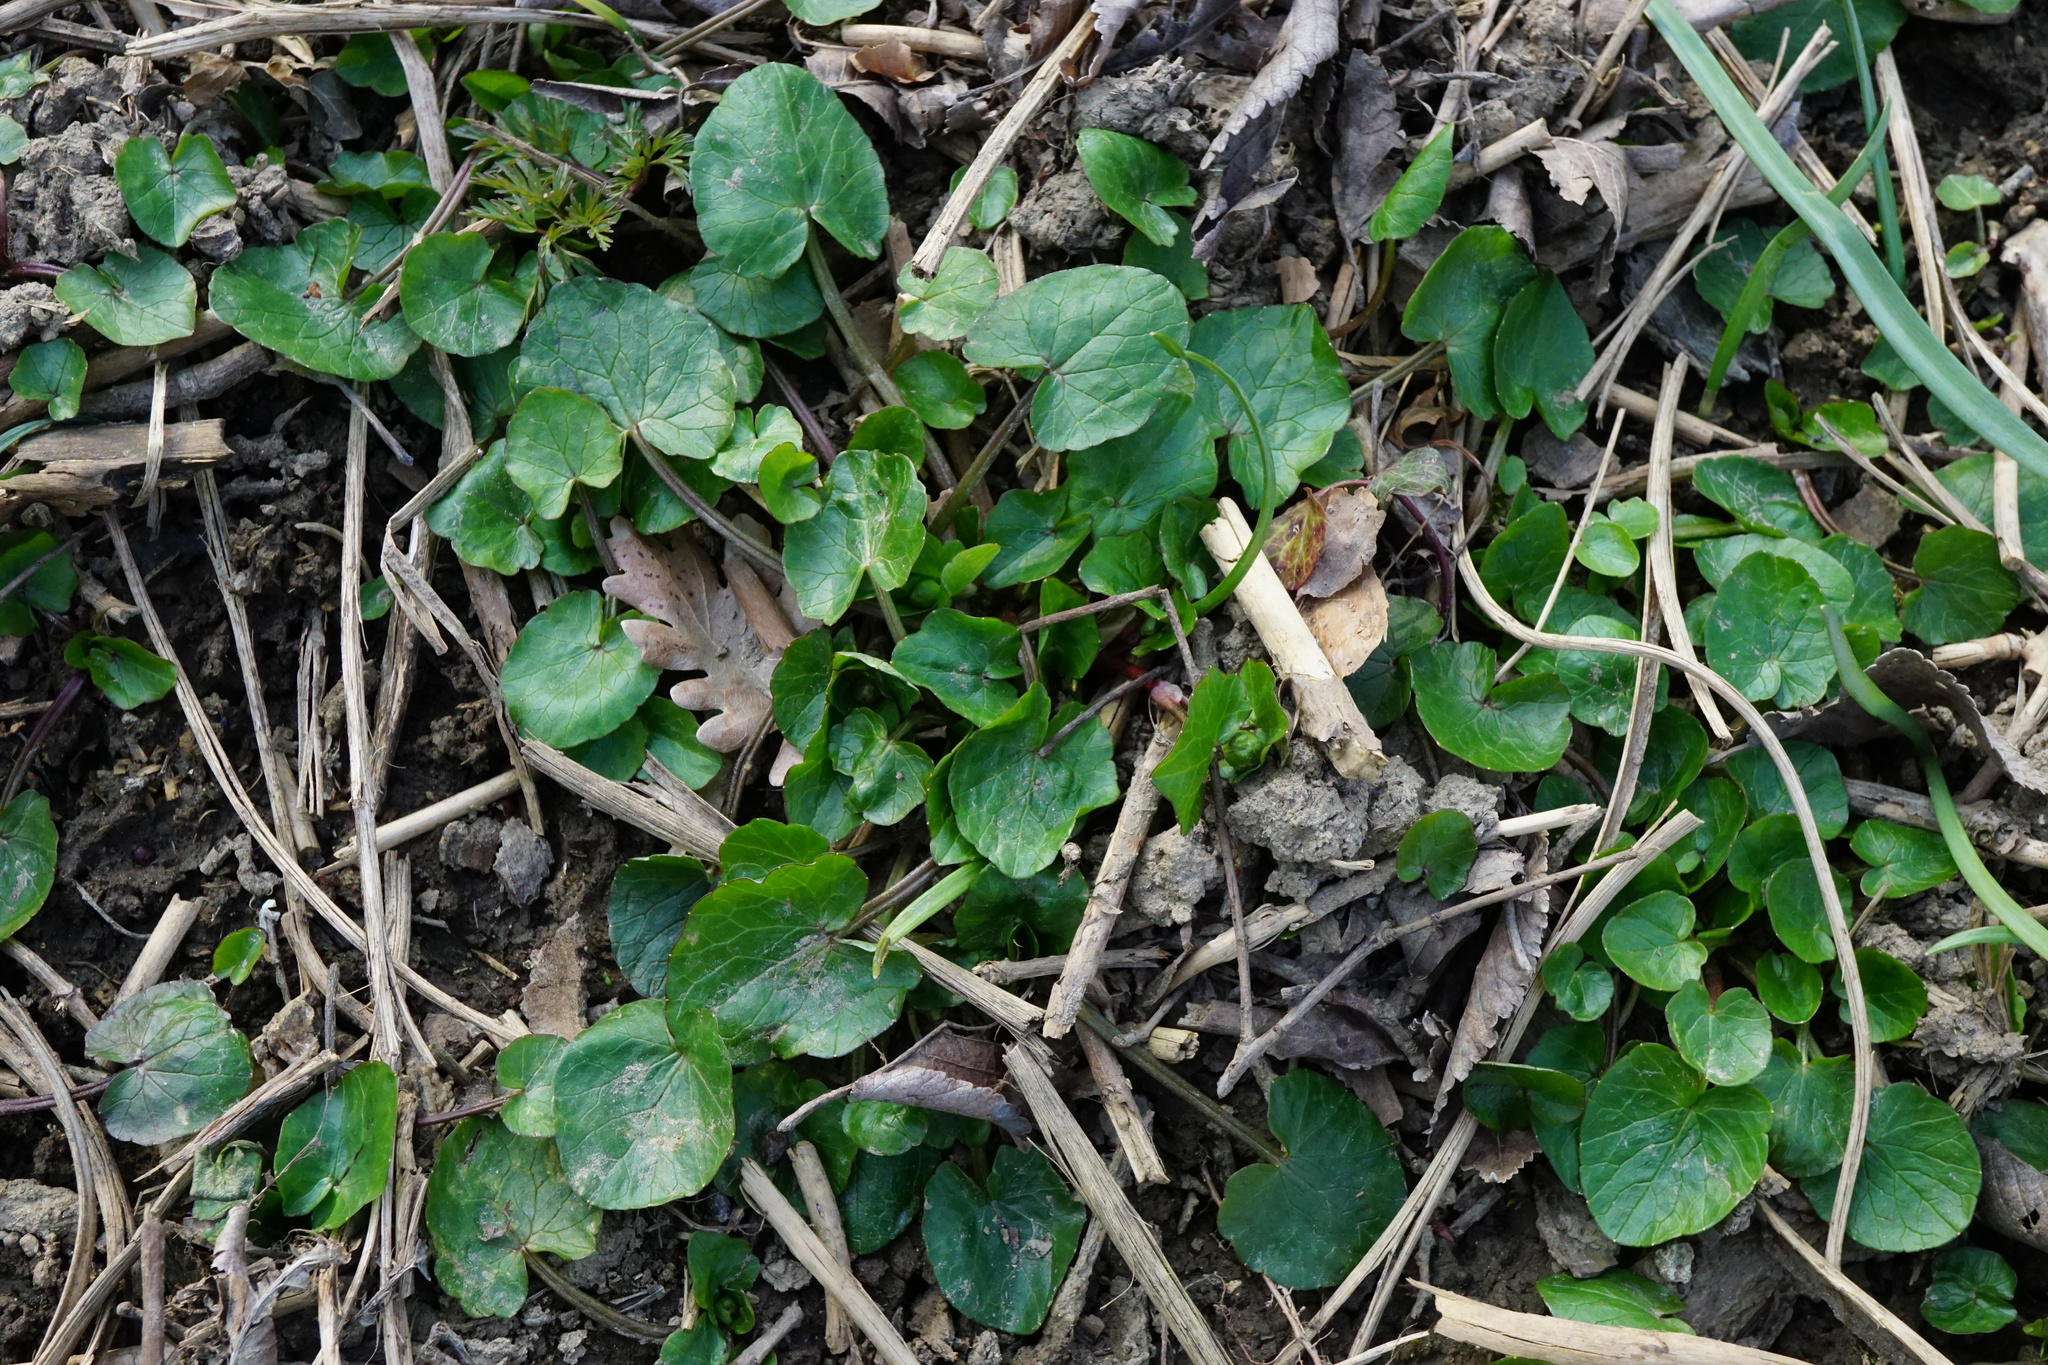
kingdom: Plantae
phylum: Tracheophyta
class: Magnoliopsida
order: Ranunculales
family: Ranunculaceae
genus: Ficaria
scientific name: Ficaria verna
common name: Lesser celandine
